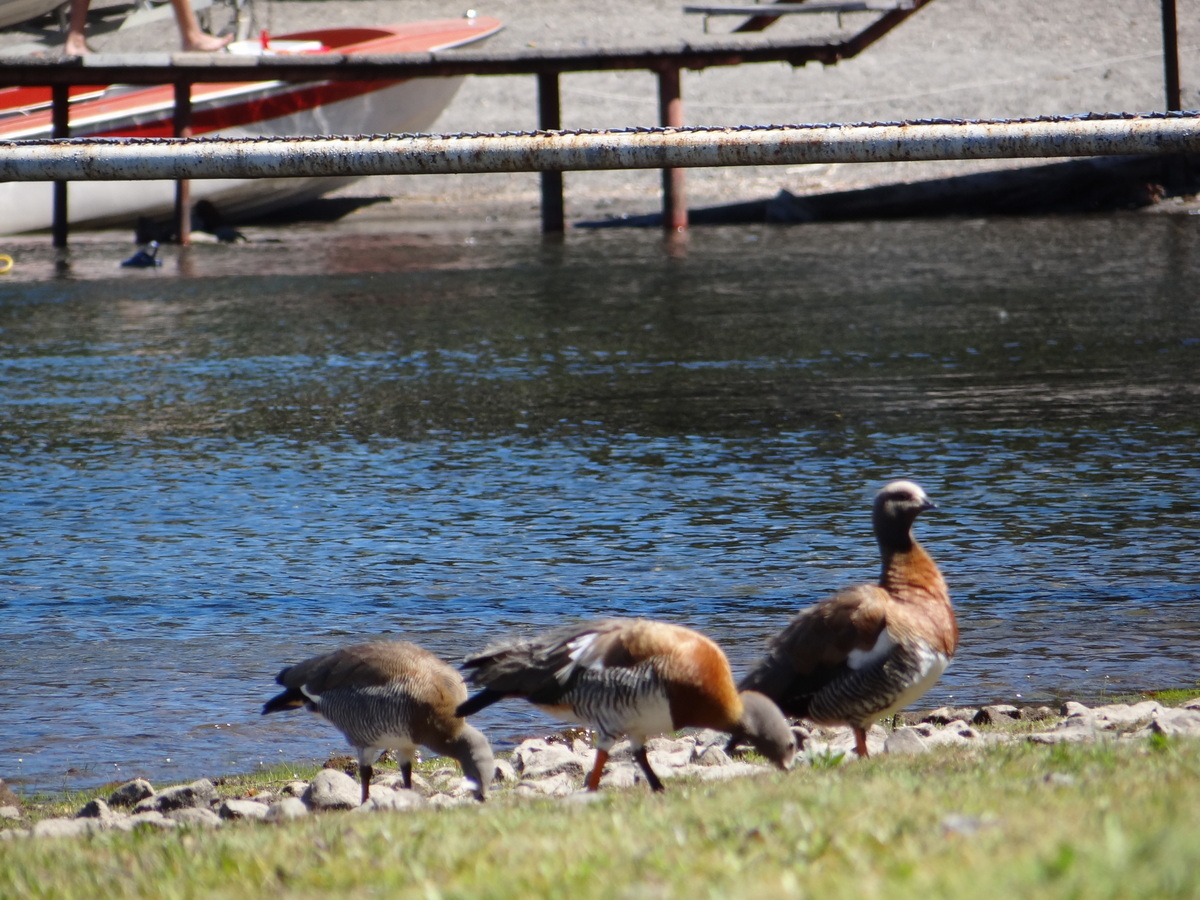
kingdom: Animalia
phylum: Chordata
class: Aves
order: Anseriformes
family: Anatidae
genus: Chloephaga
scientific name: Chloephaga poliocephala
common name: Ashy-headed goose
